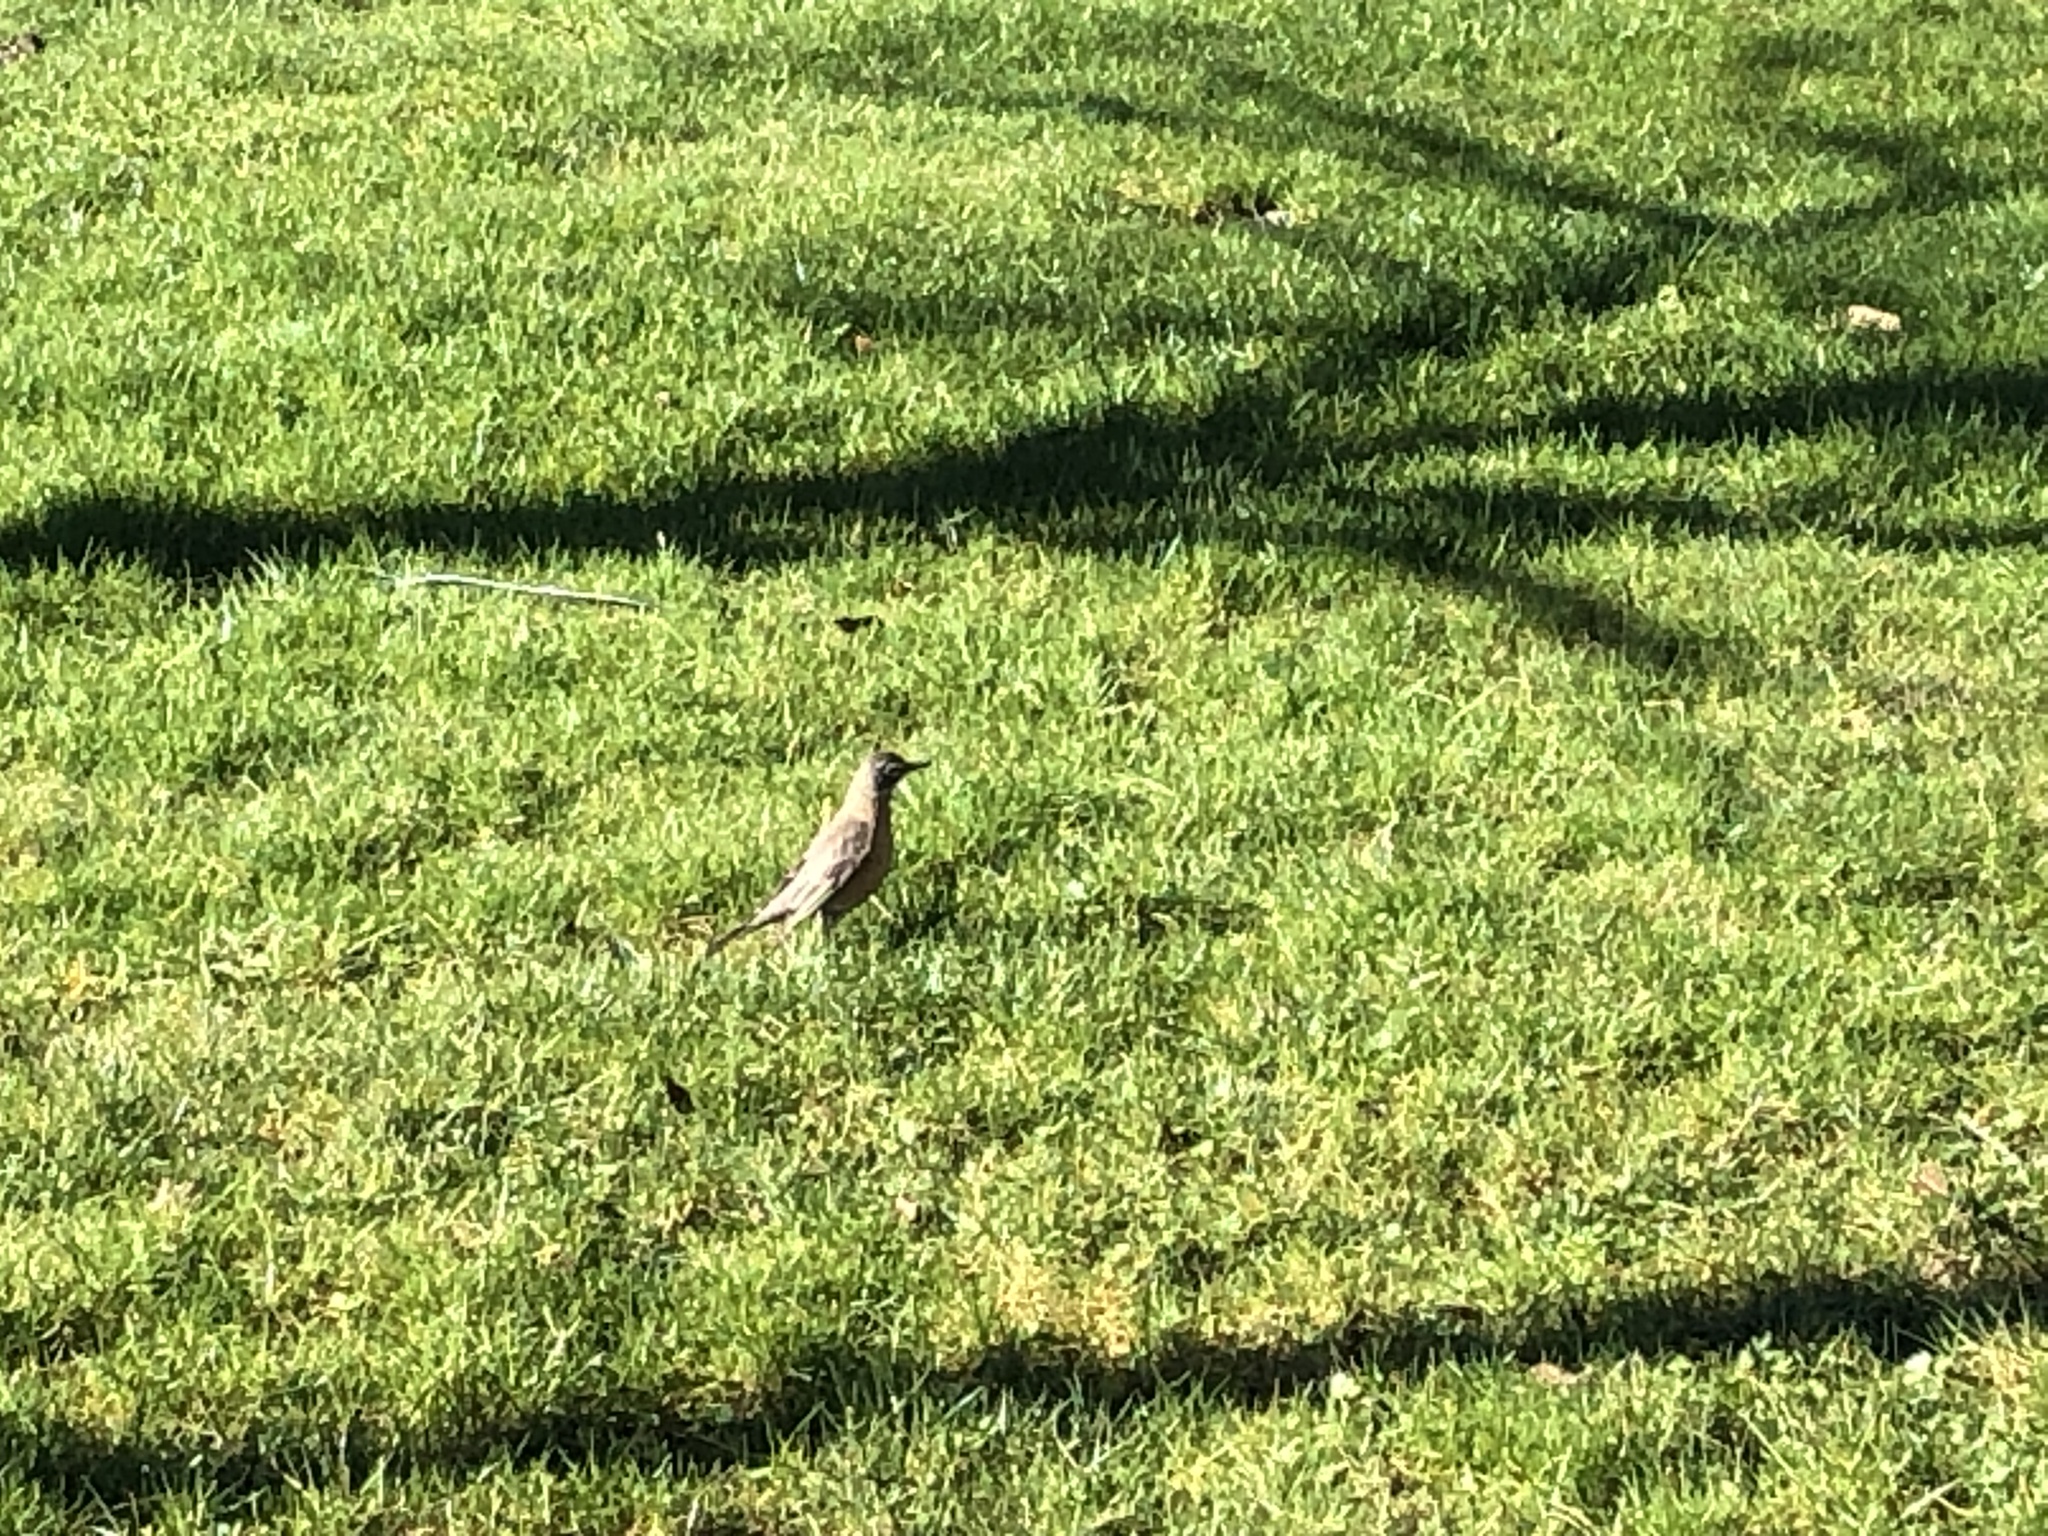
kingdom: Animalia
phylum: Chordata
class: Aves
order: Passeriformes
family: Turdidae
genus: Turdus
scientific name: Turdus migratorius
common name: American robin
